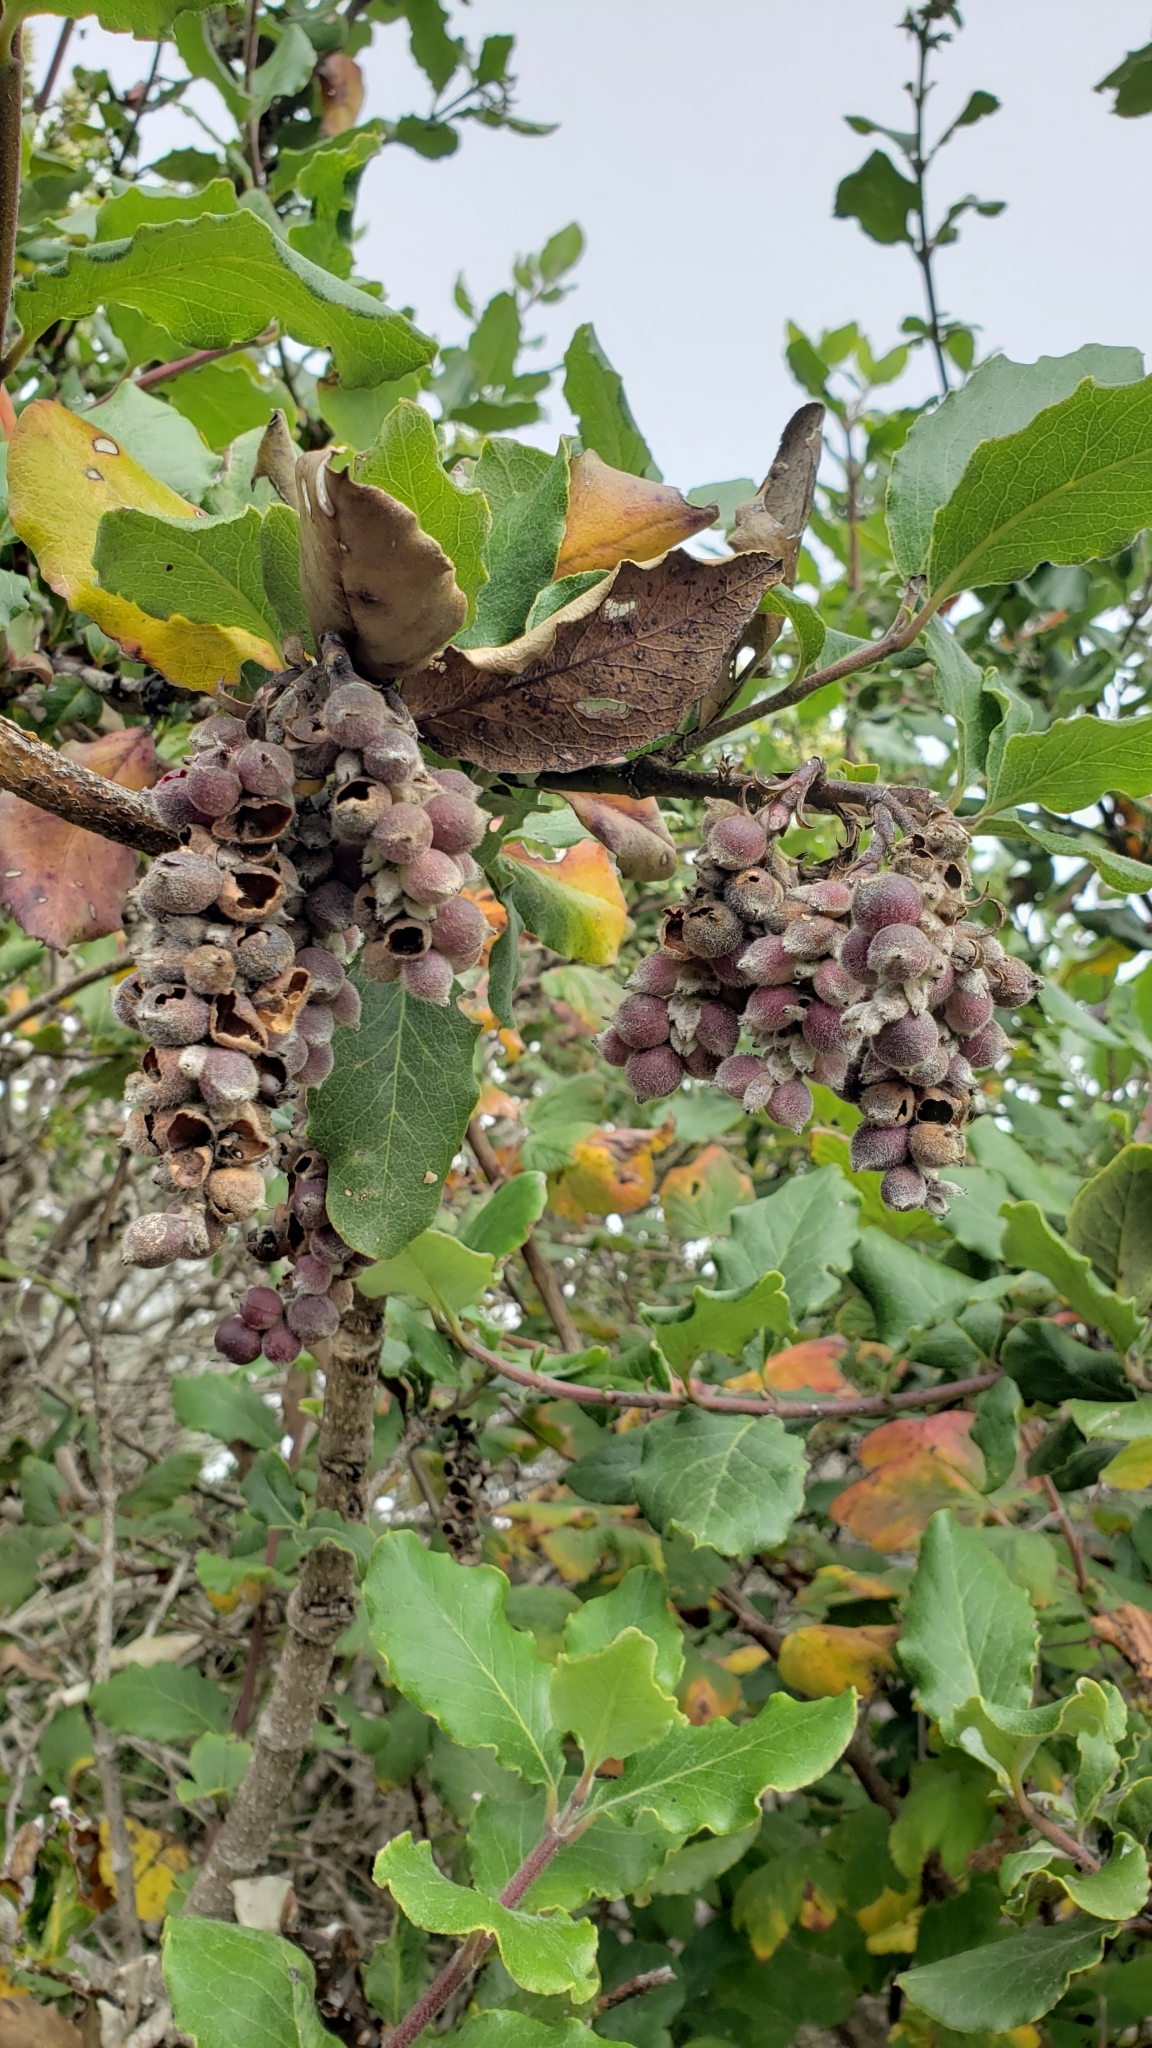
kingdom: Plantae
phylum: Tracheophyta
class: Magnoliopsida
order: Garryales
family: Garryaceae
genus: Garrya
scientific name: Garrya elliptica
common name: Silk-tassel
